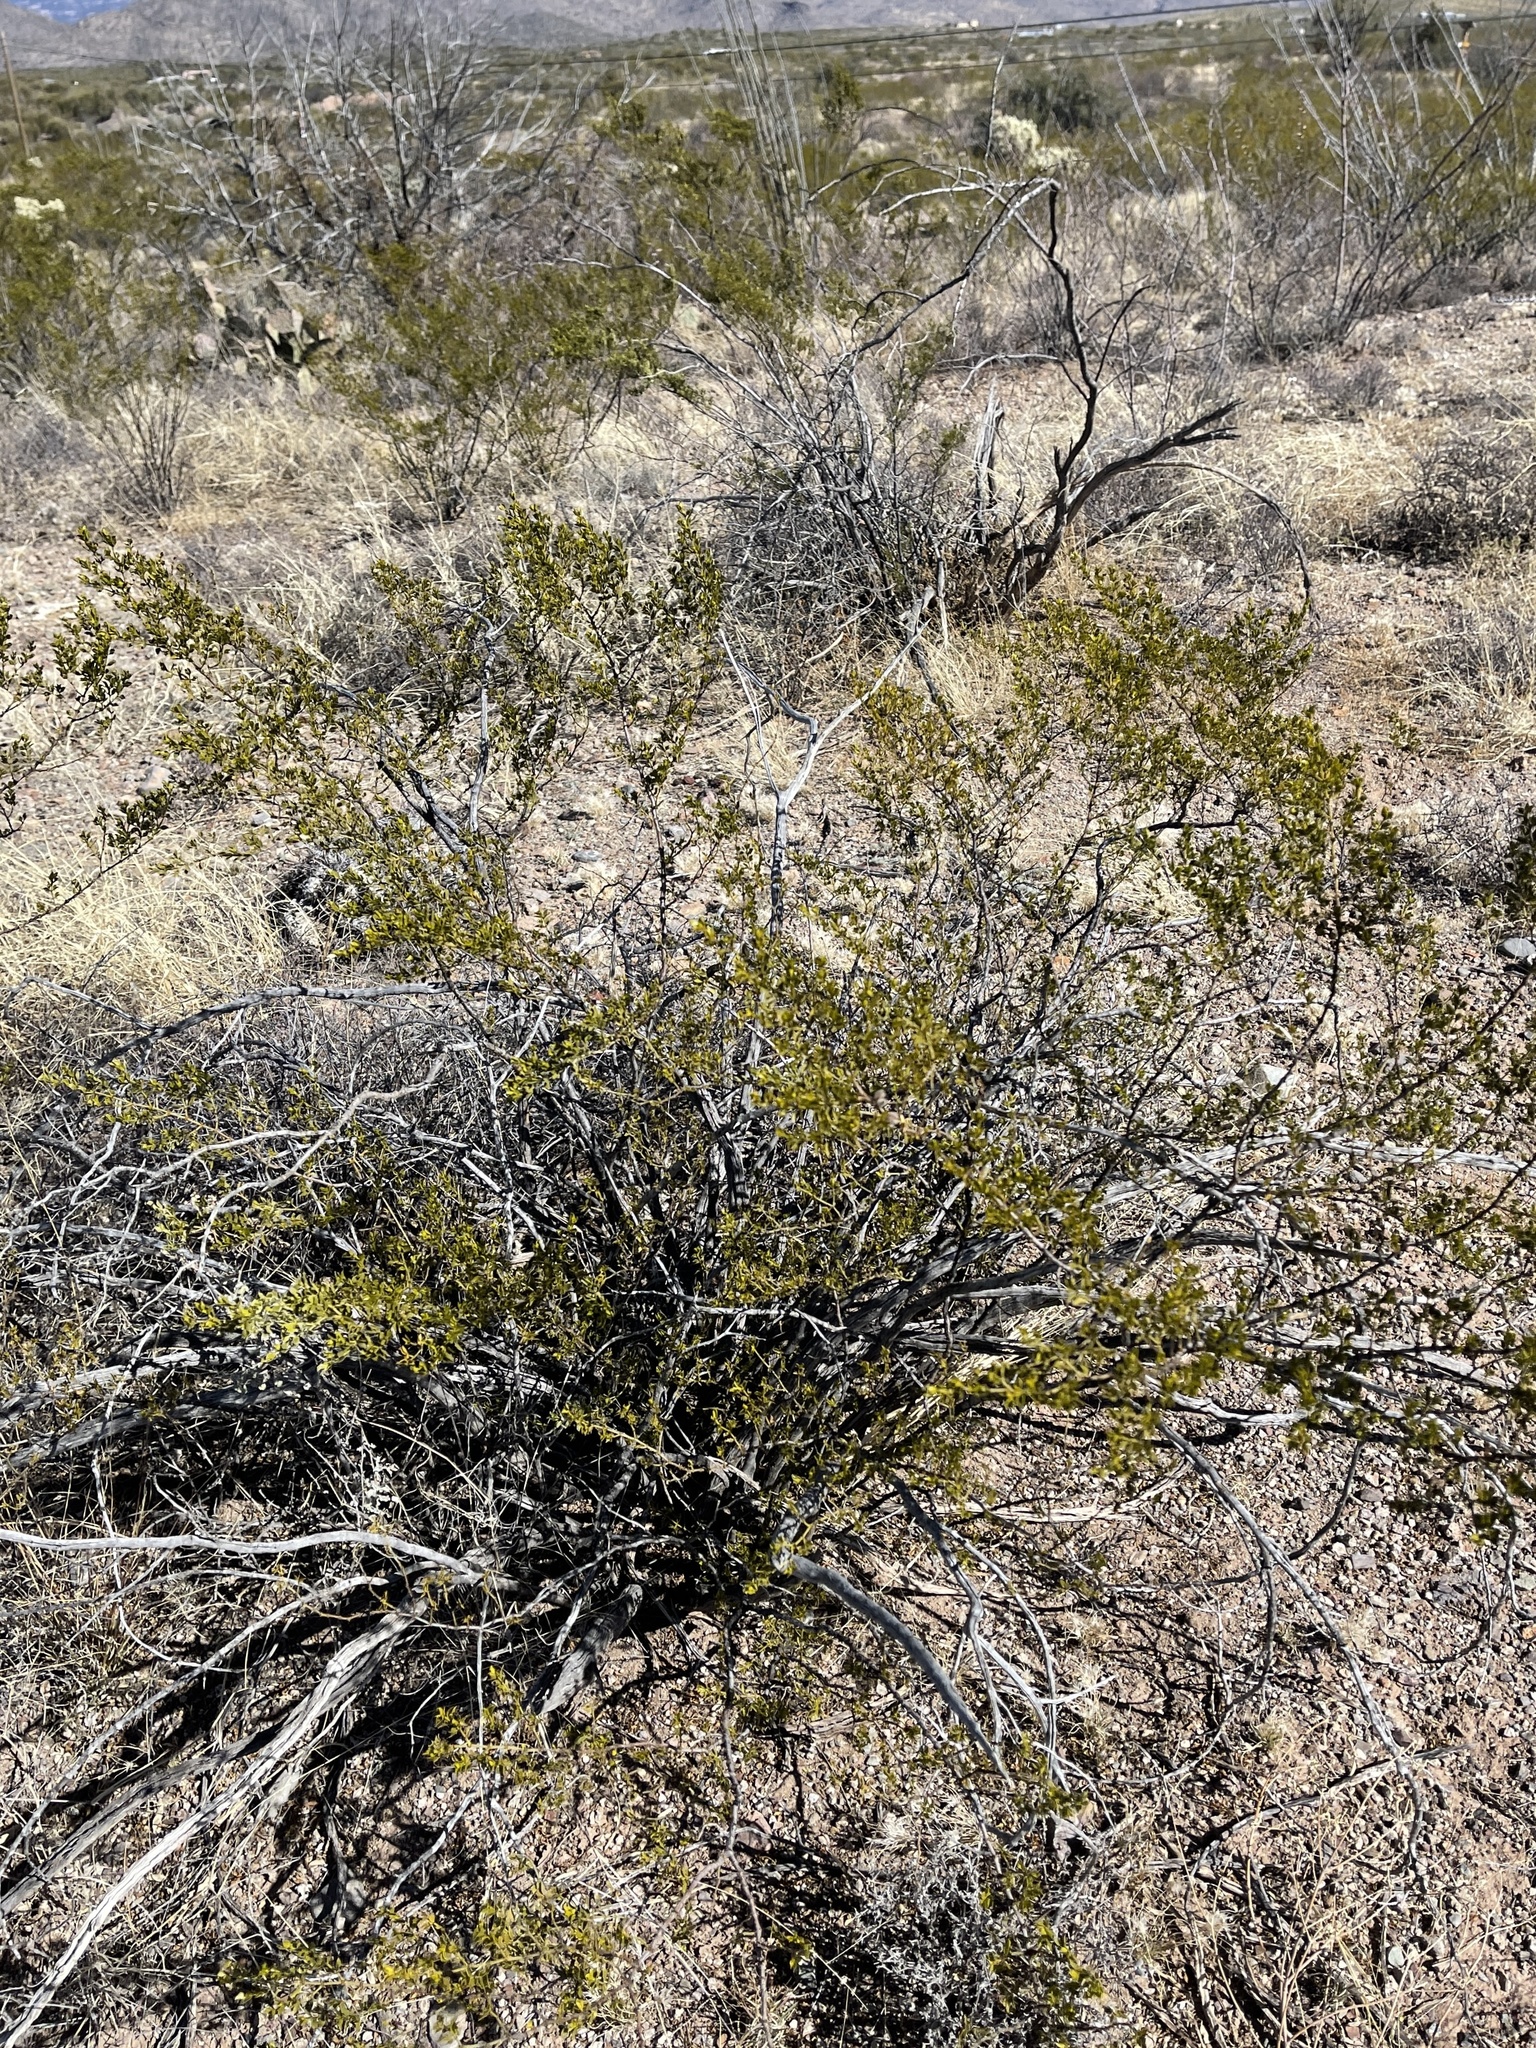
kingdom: Plantae
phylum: Tracheophyta
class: Magnoliopsida
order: Zygophyllales
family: Zygophyllaceae
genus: Larrea
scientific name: Larrea tridentata
